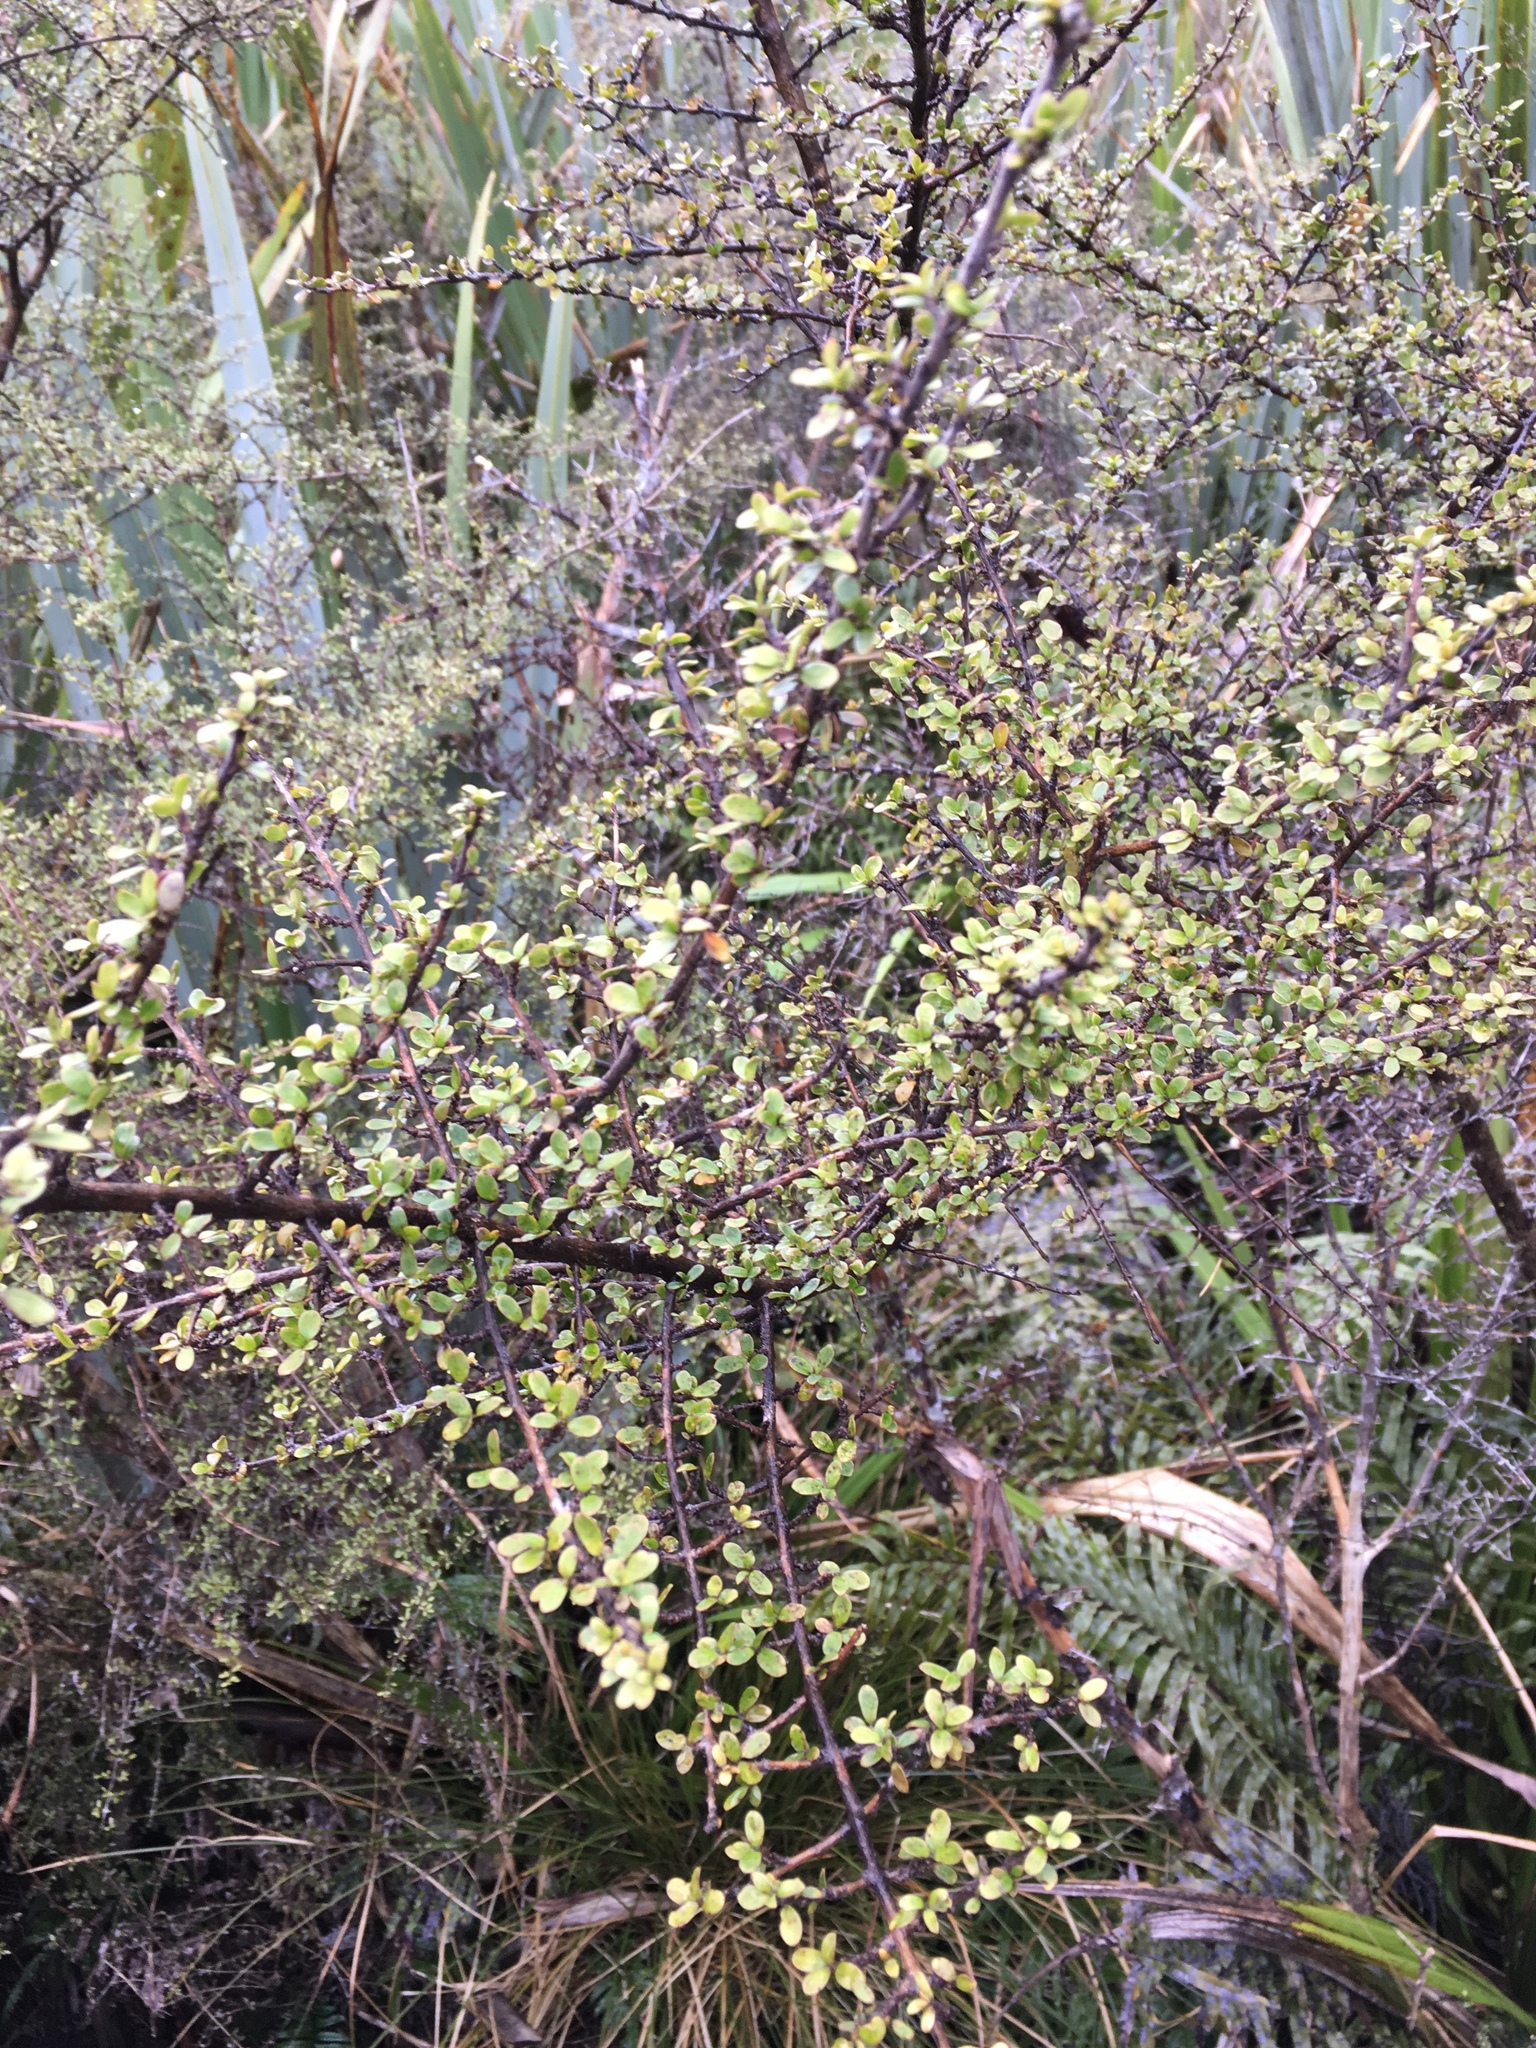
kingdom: Plantae
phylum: Tracheophyta
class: Magnoliopsida
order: Gentianales
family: Rubiaceae
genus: Coprosma
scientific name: Coprosma dumosa
